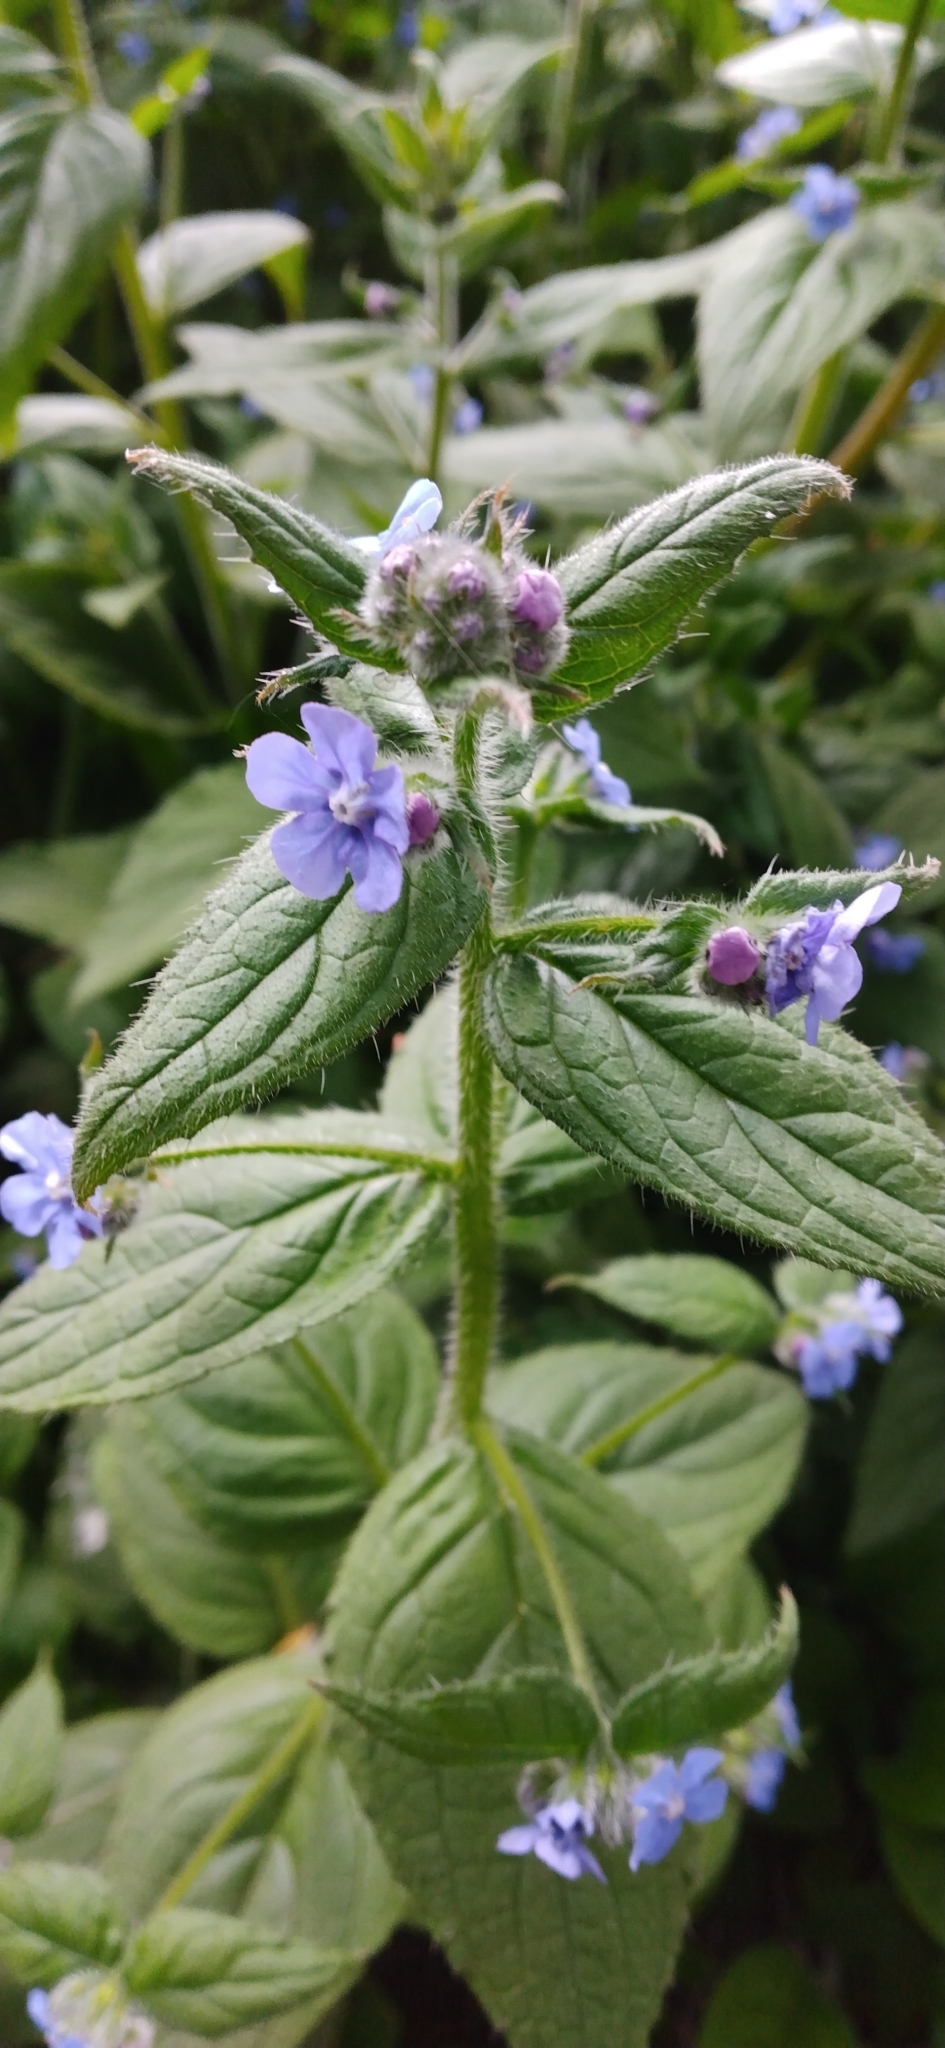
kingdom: Plantae
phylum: Tracheophyta
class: Magnoliopsida
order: Boraginales
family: Boraginaceae
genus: Pentaglottis
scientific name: Pentaglottis sempervirens
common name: Green alkanet
